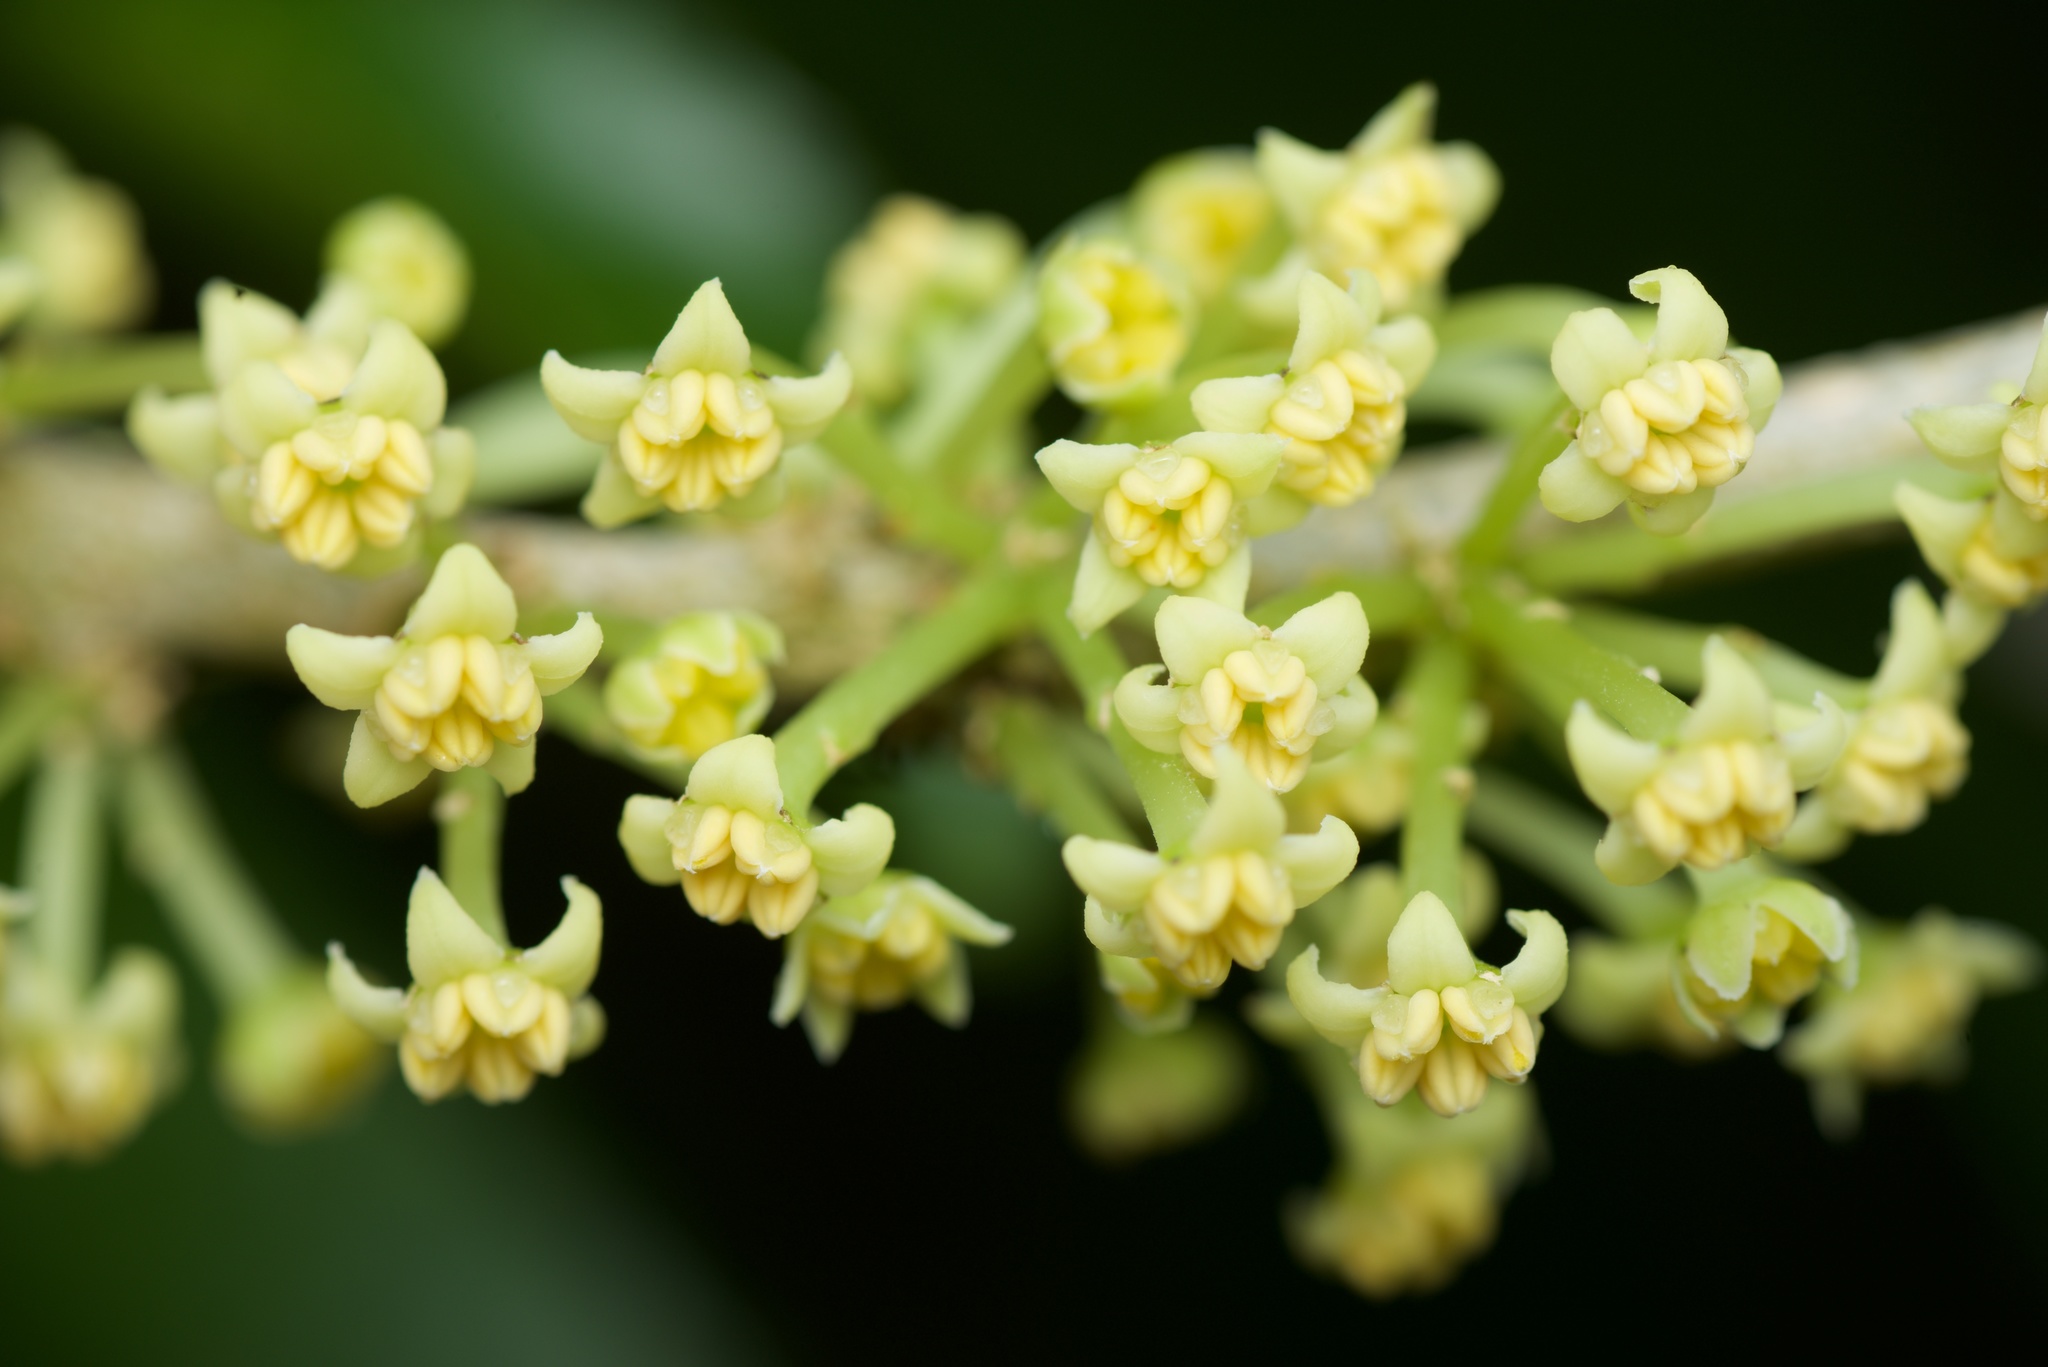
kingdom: Plantae
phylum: Tracheophyta
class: Magnoliopsida
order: Malpighiales
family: Violaceae
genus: Melicytus
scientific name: Melicytus ramiflorus
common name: Mahoe
